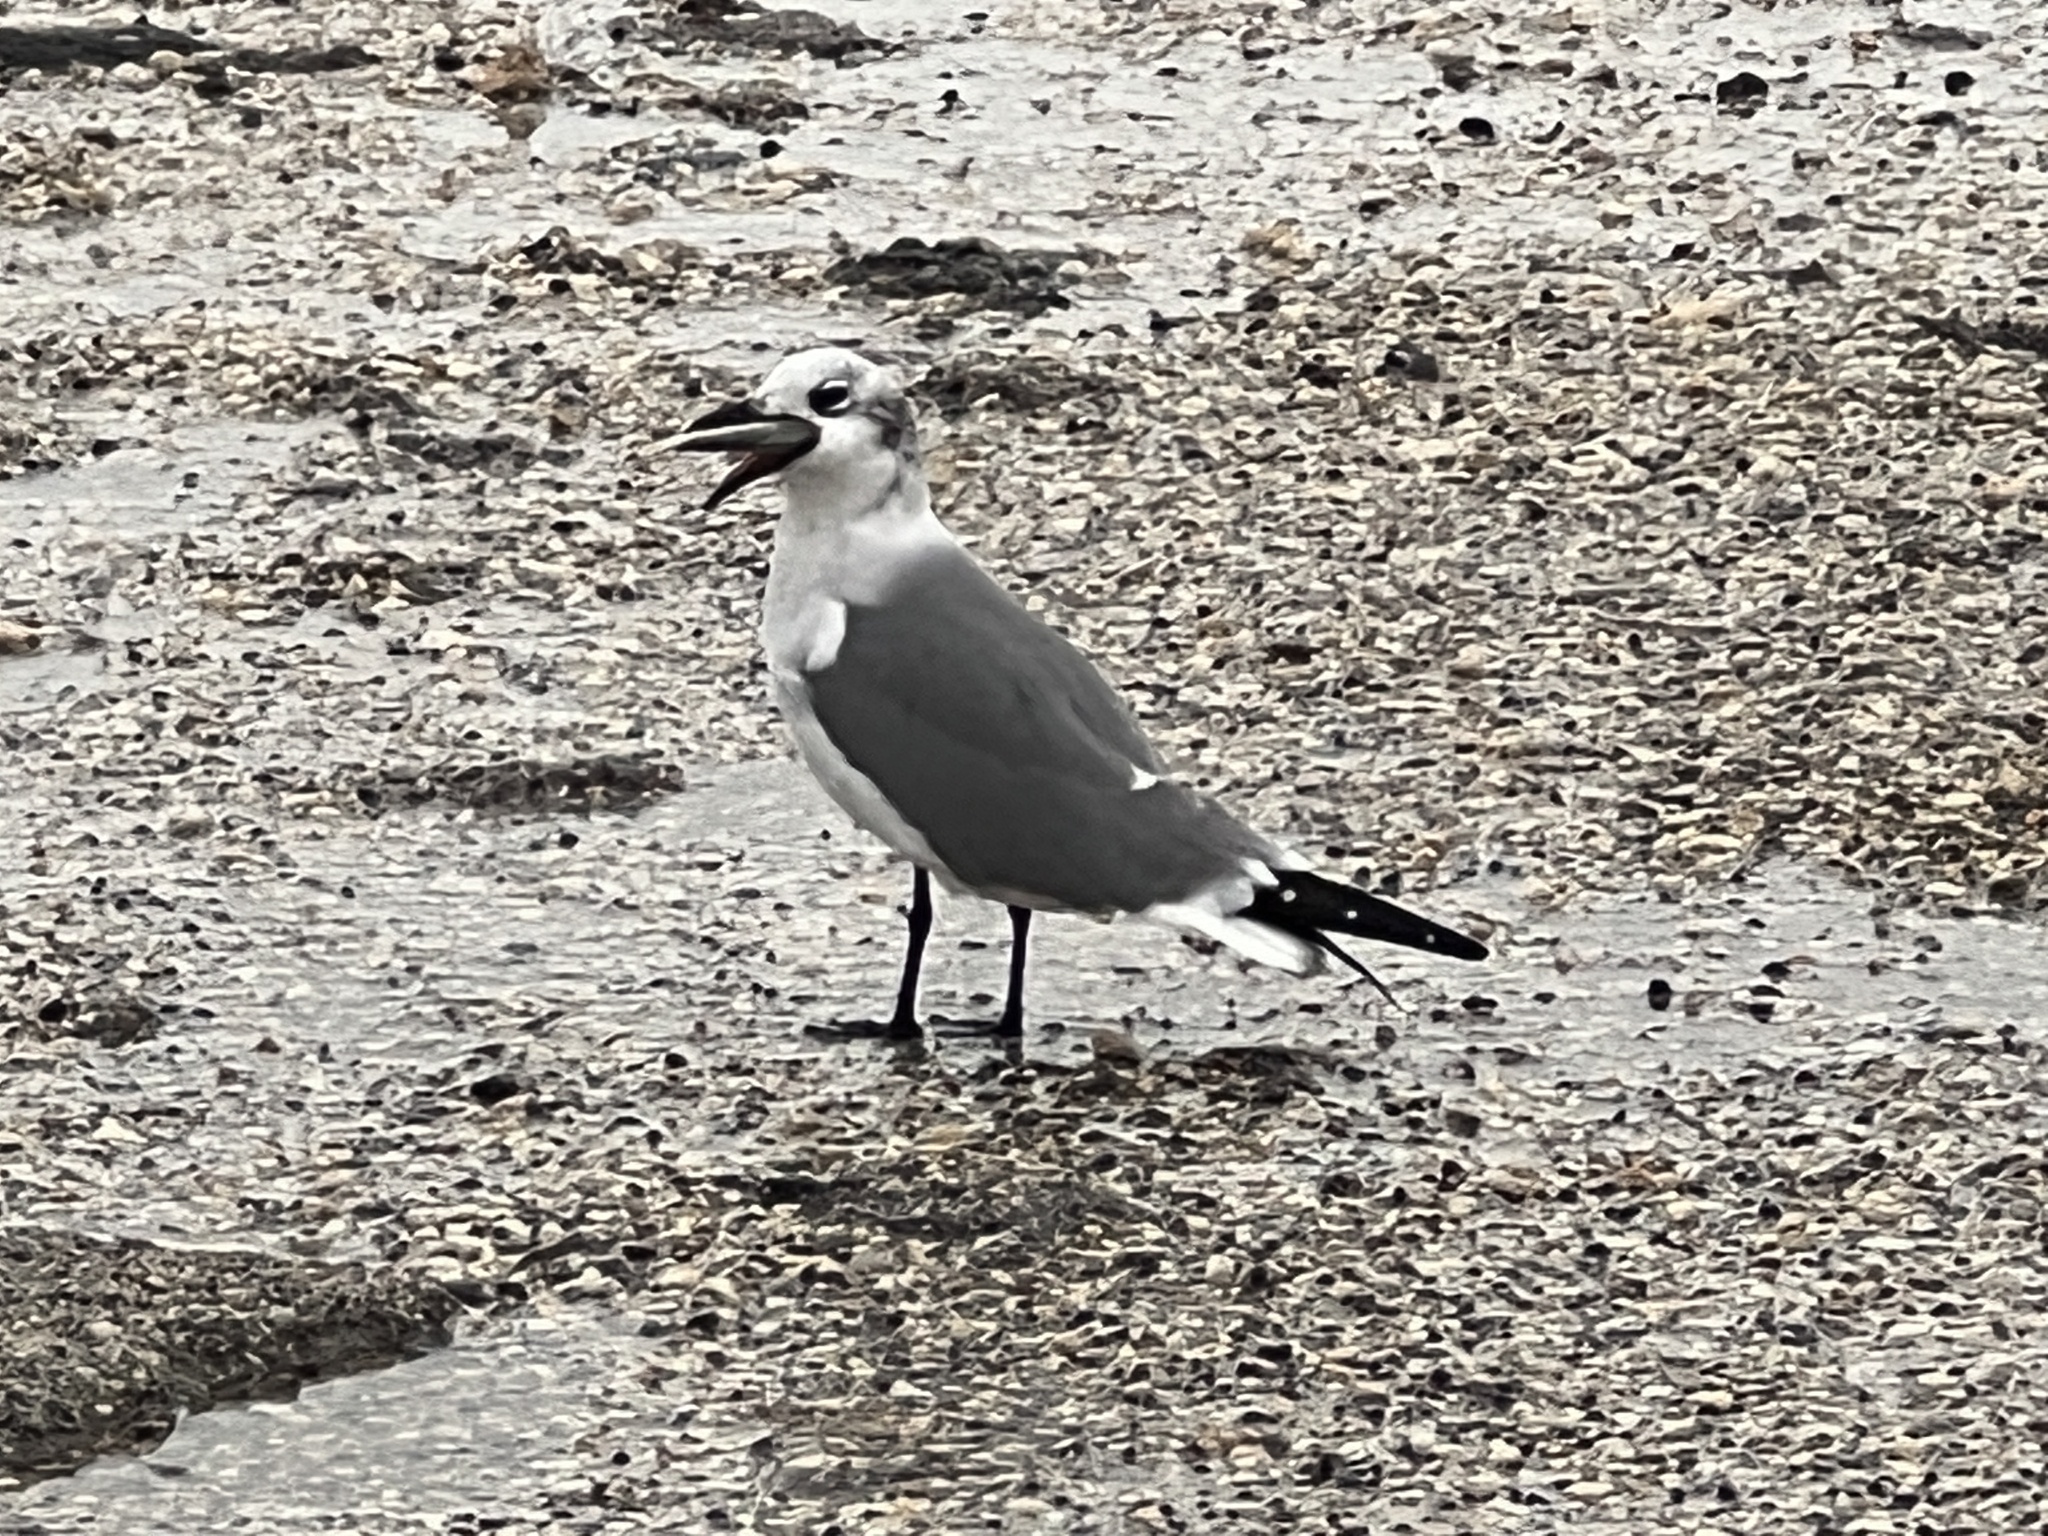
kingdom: Animalia
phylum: Chordata
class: Aves
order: Charadriiformes
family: Laridae
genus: Leucophaeus
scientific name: Leucophaeus atricilla
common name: Laughing gull
